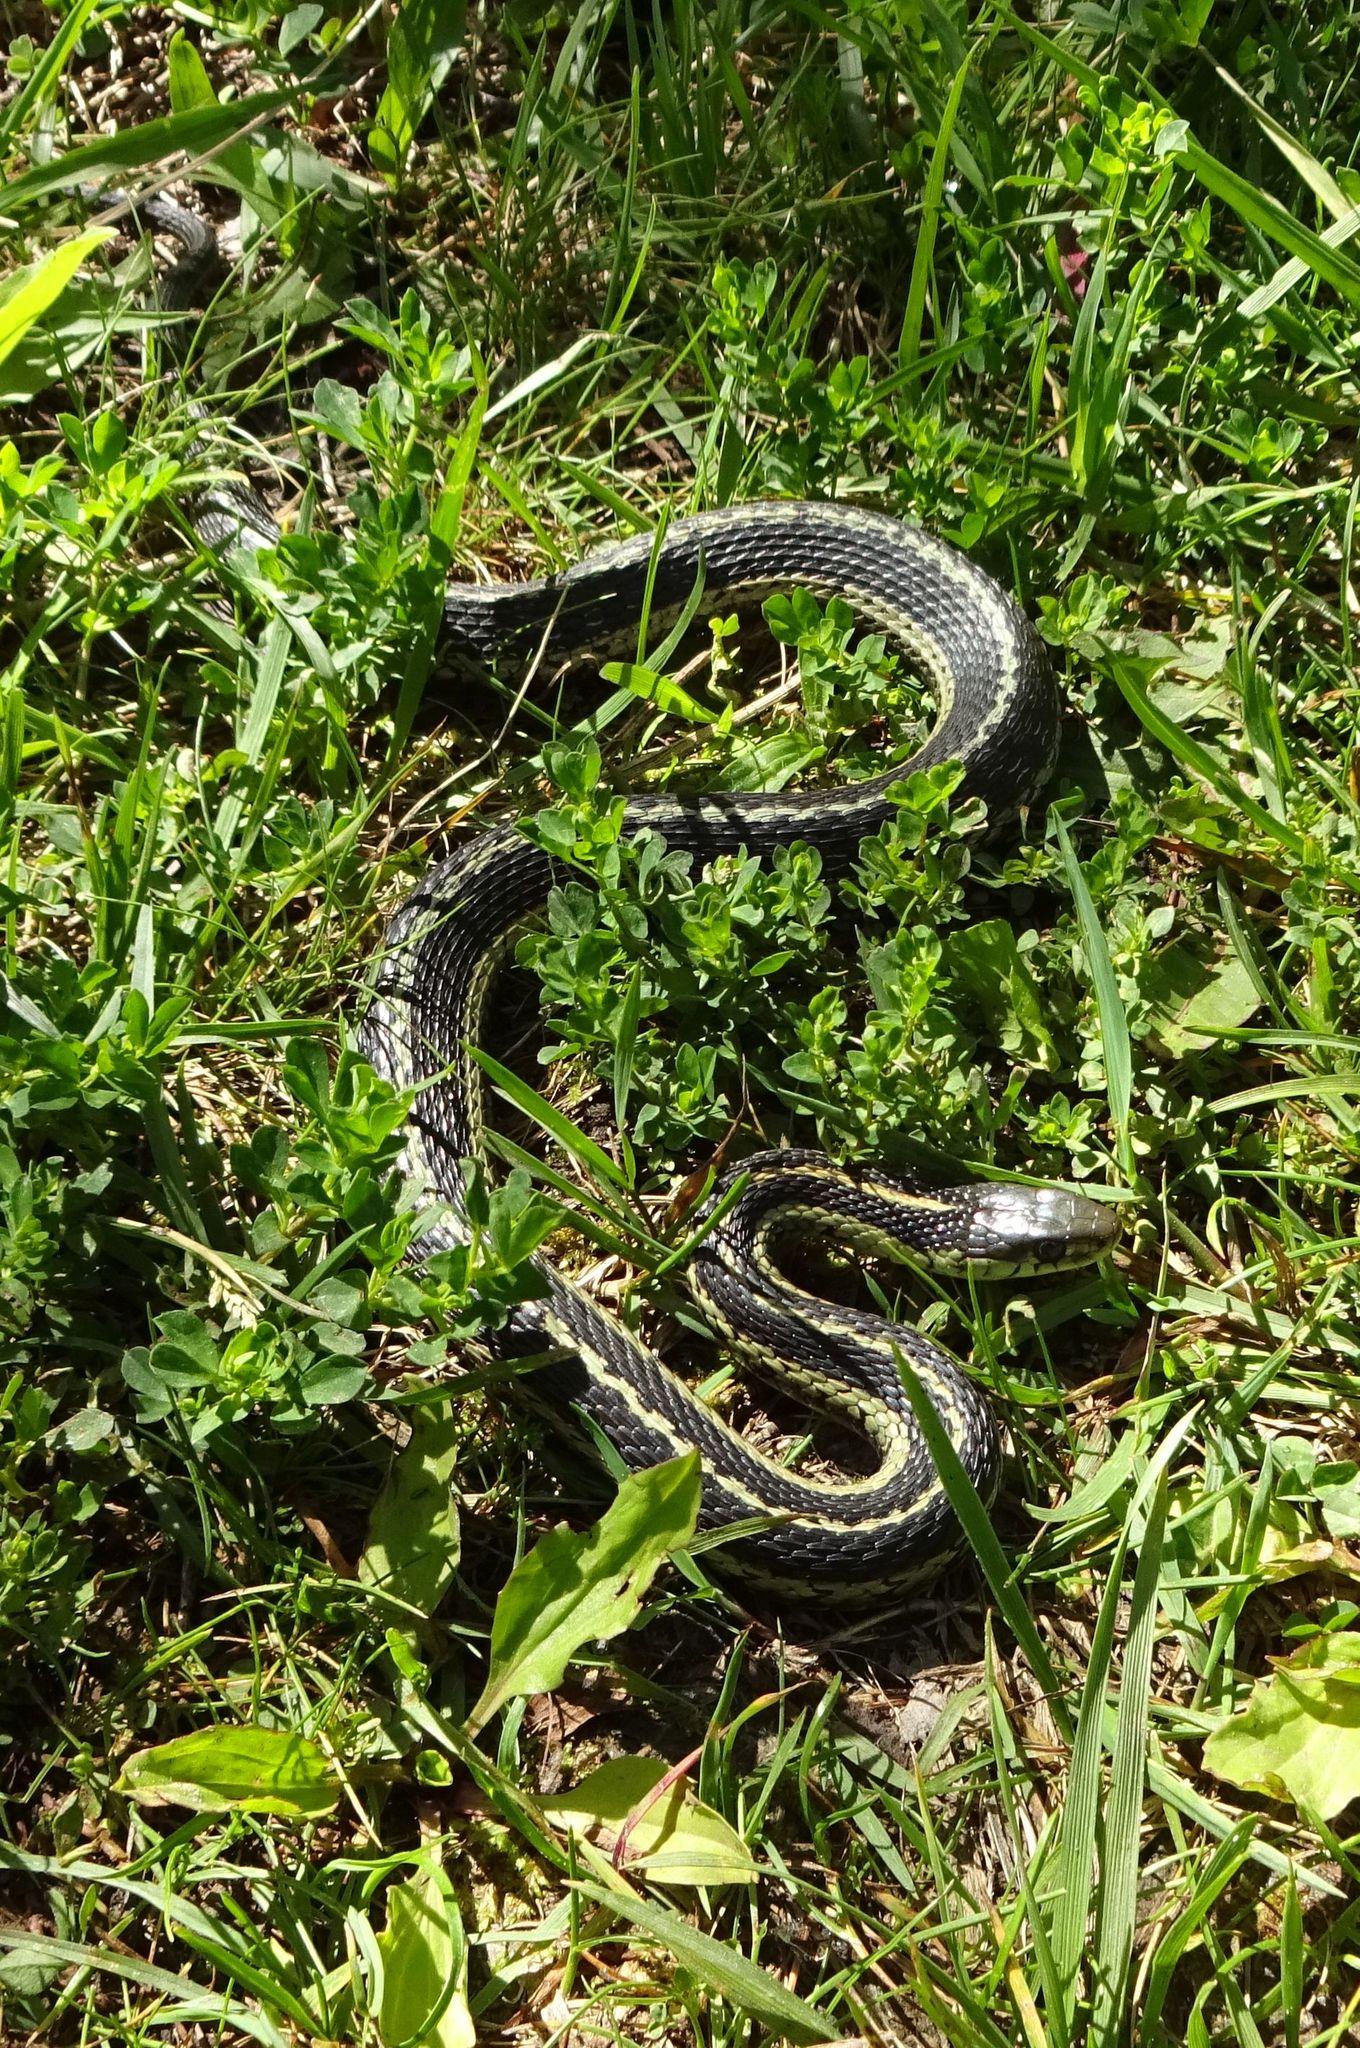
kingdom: Animalia
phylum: Chordata
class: Squamata
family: Colubridae
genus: Thamnophis
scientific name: Thamnophis sirtalis
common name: Common garter snake
